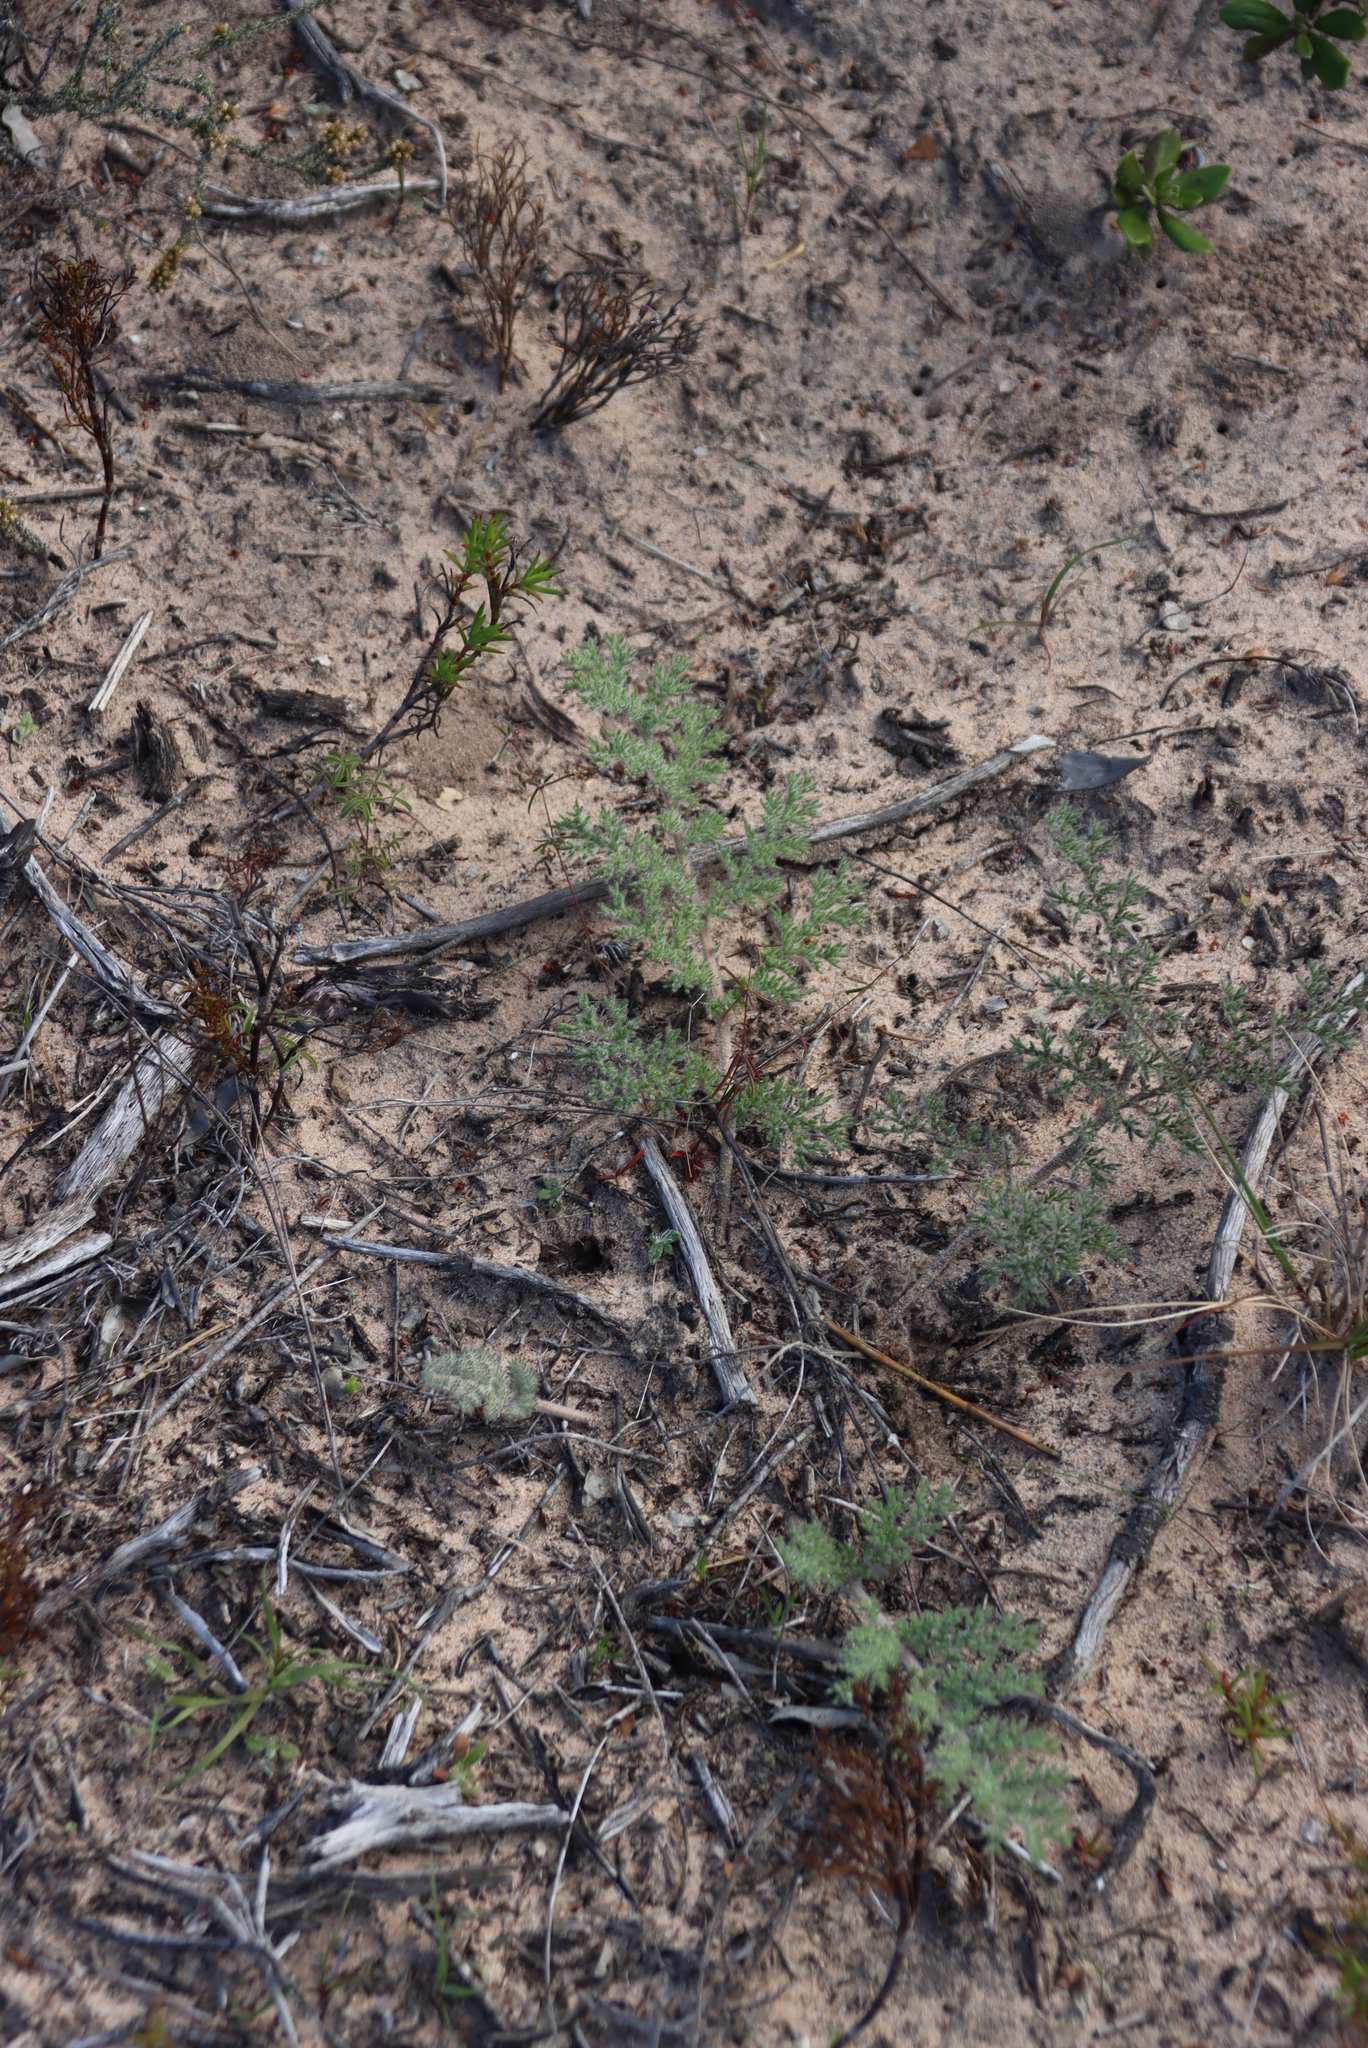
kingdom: Plantae
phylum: Tracheophyta
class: Magnoliopsida
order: Geraniales
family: Geraniaceae
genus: Pelargonium
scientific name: Pelargonium triste
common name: Night-scent pelargonium
